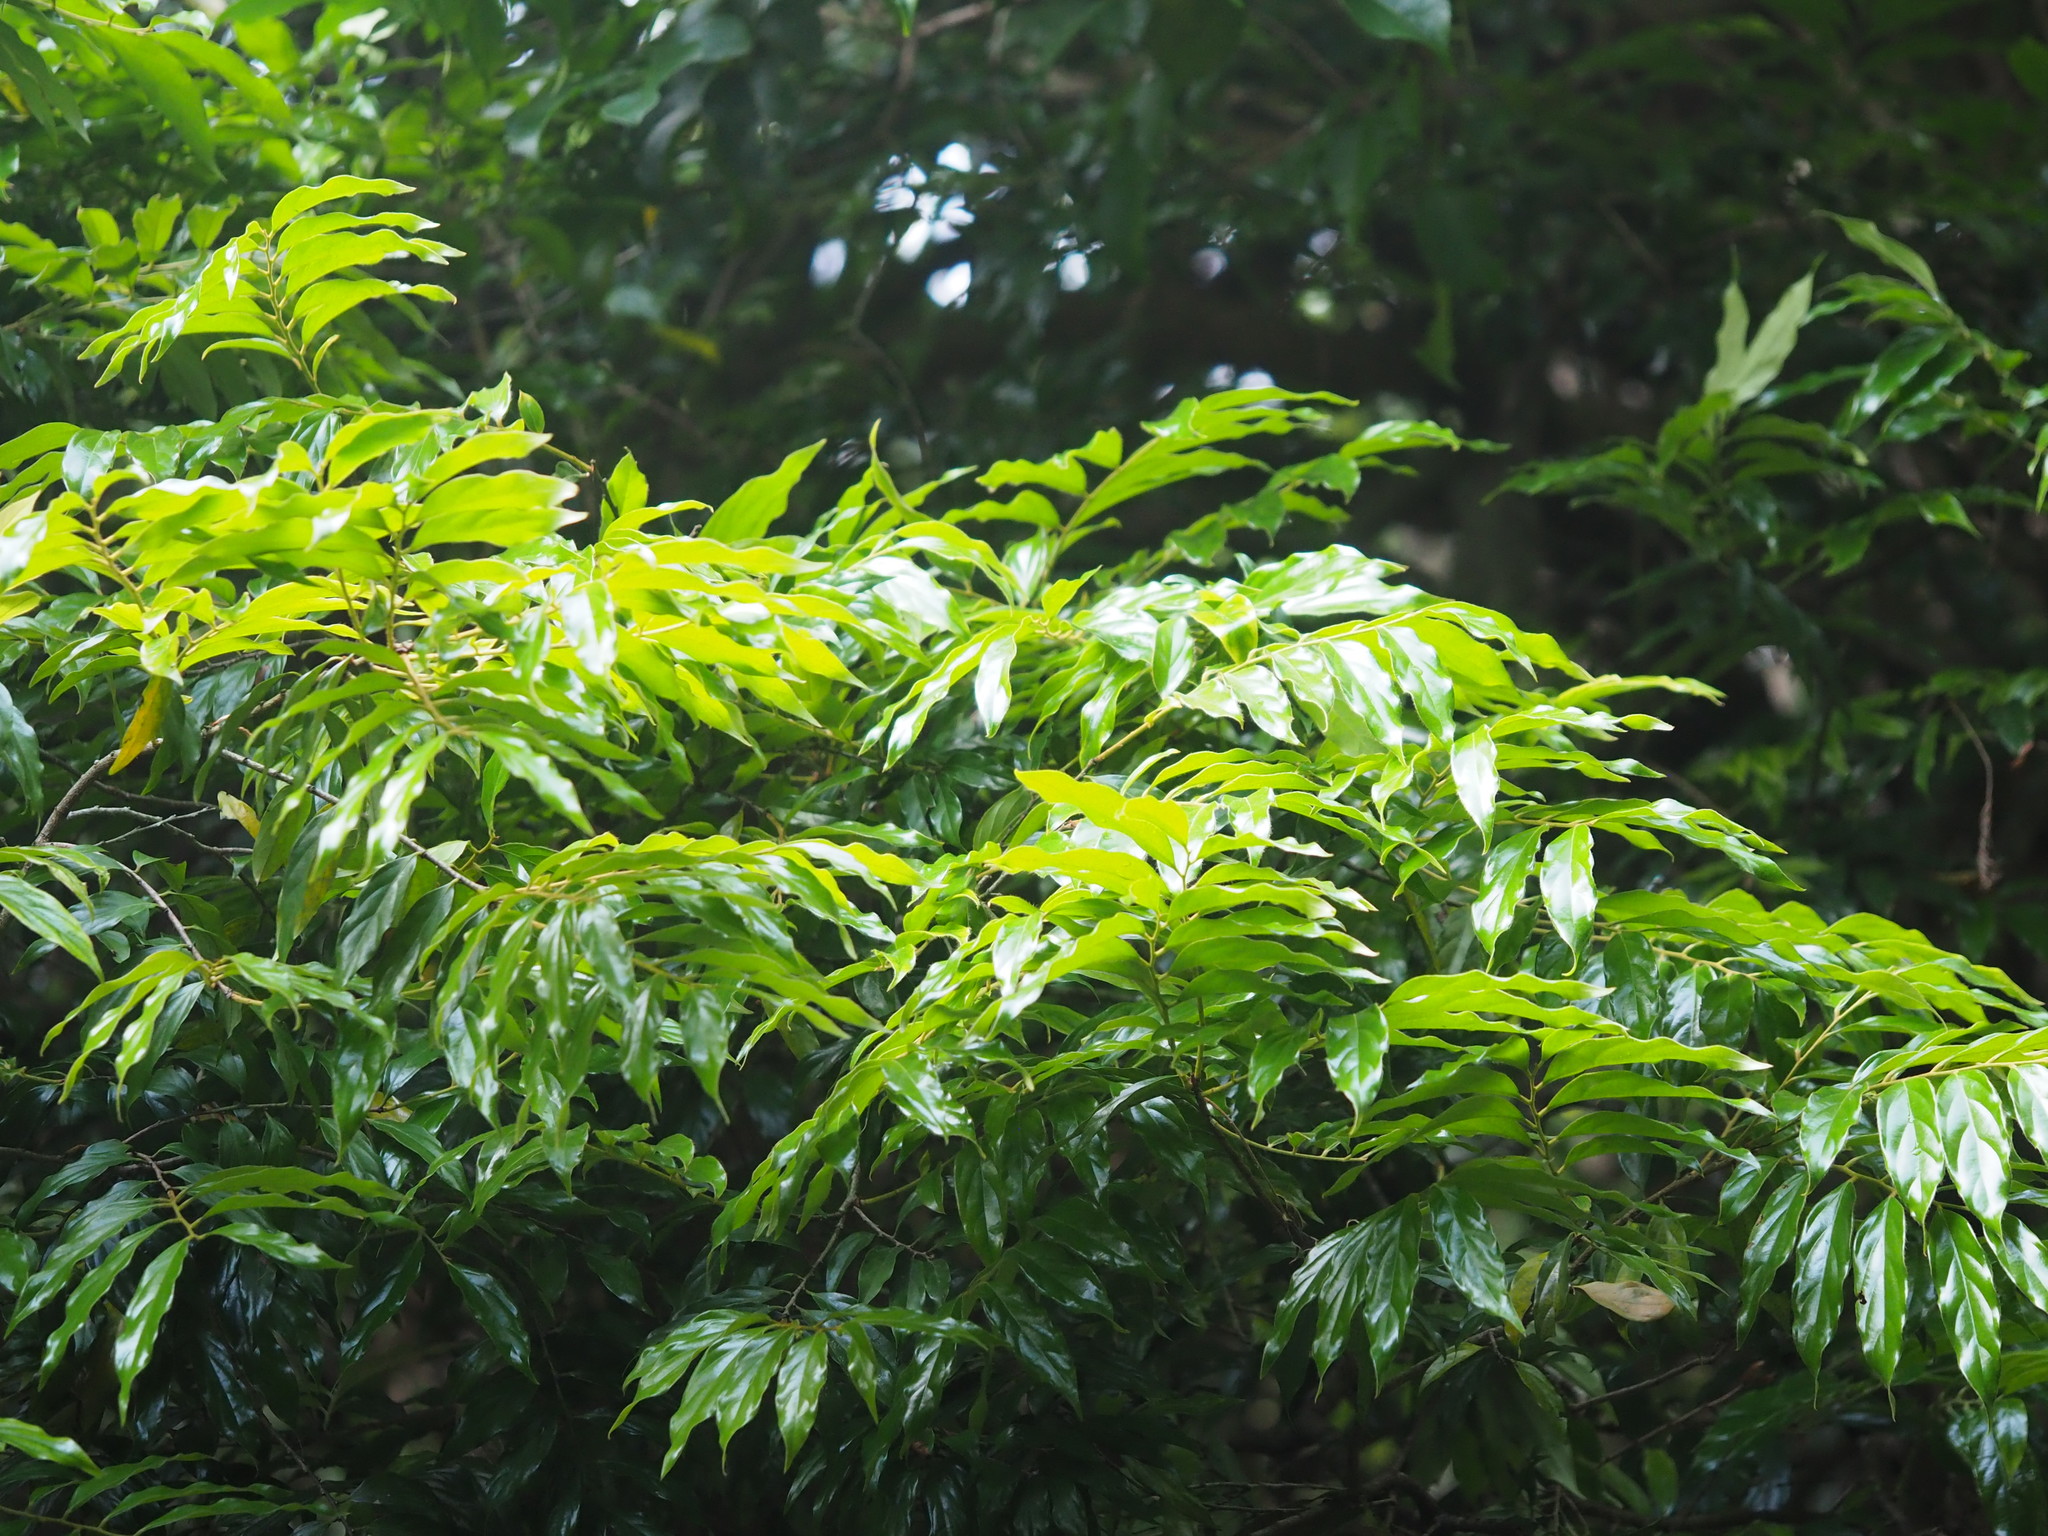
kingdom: Plantae
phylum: Tracheophyta
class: Magnoliopsida
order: Ericales
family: Ebenaceae
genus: Diospyros
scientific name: Diospyros eriantha
